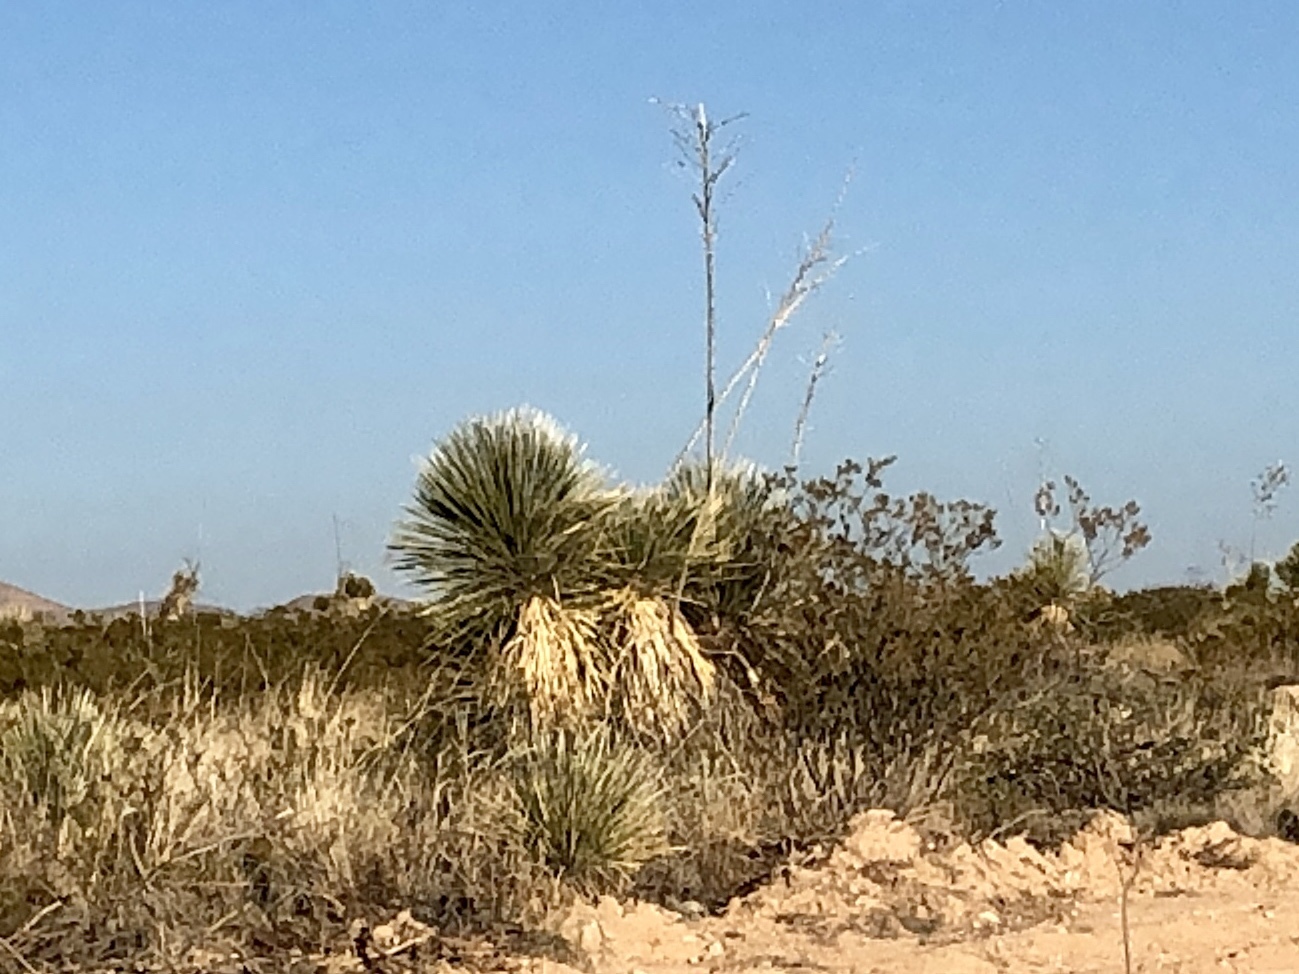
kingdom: Plantae
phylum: Tracheophyta
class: Liliopsida
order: Asparagales
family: Asparagaceae
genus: Yucca
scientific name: Yucca elata
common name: Palmella
